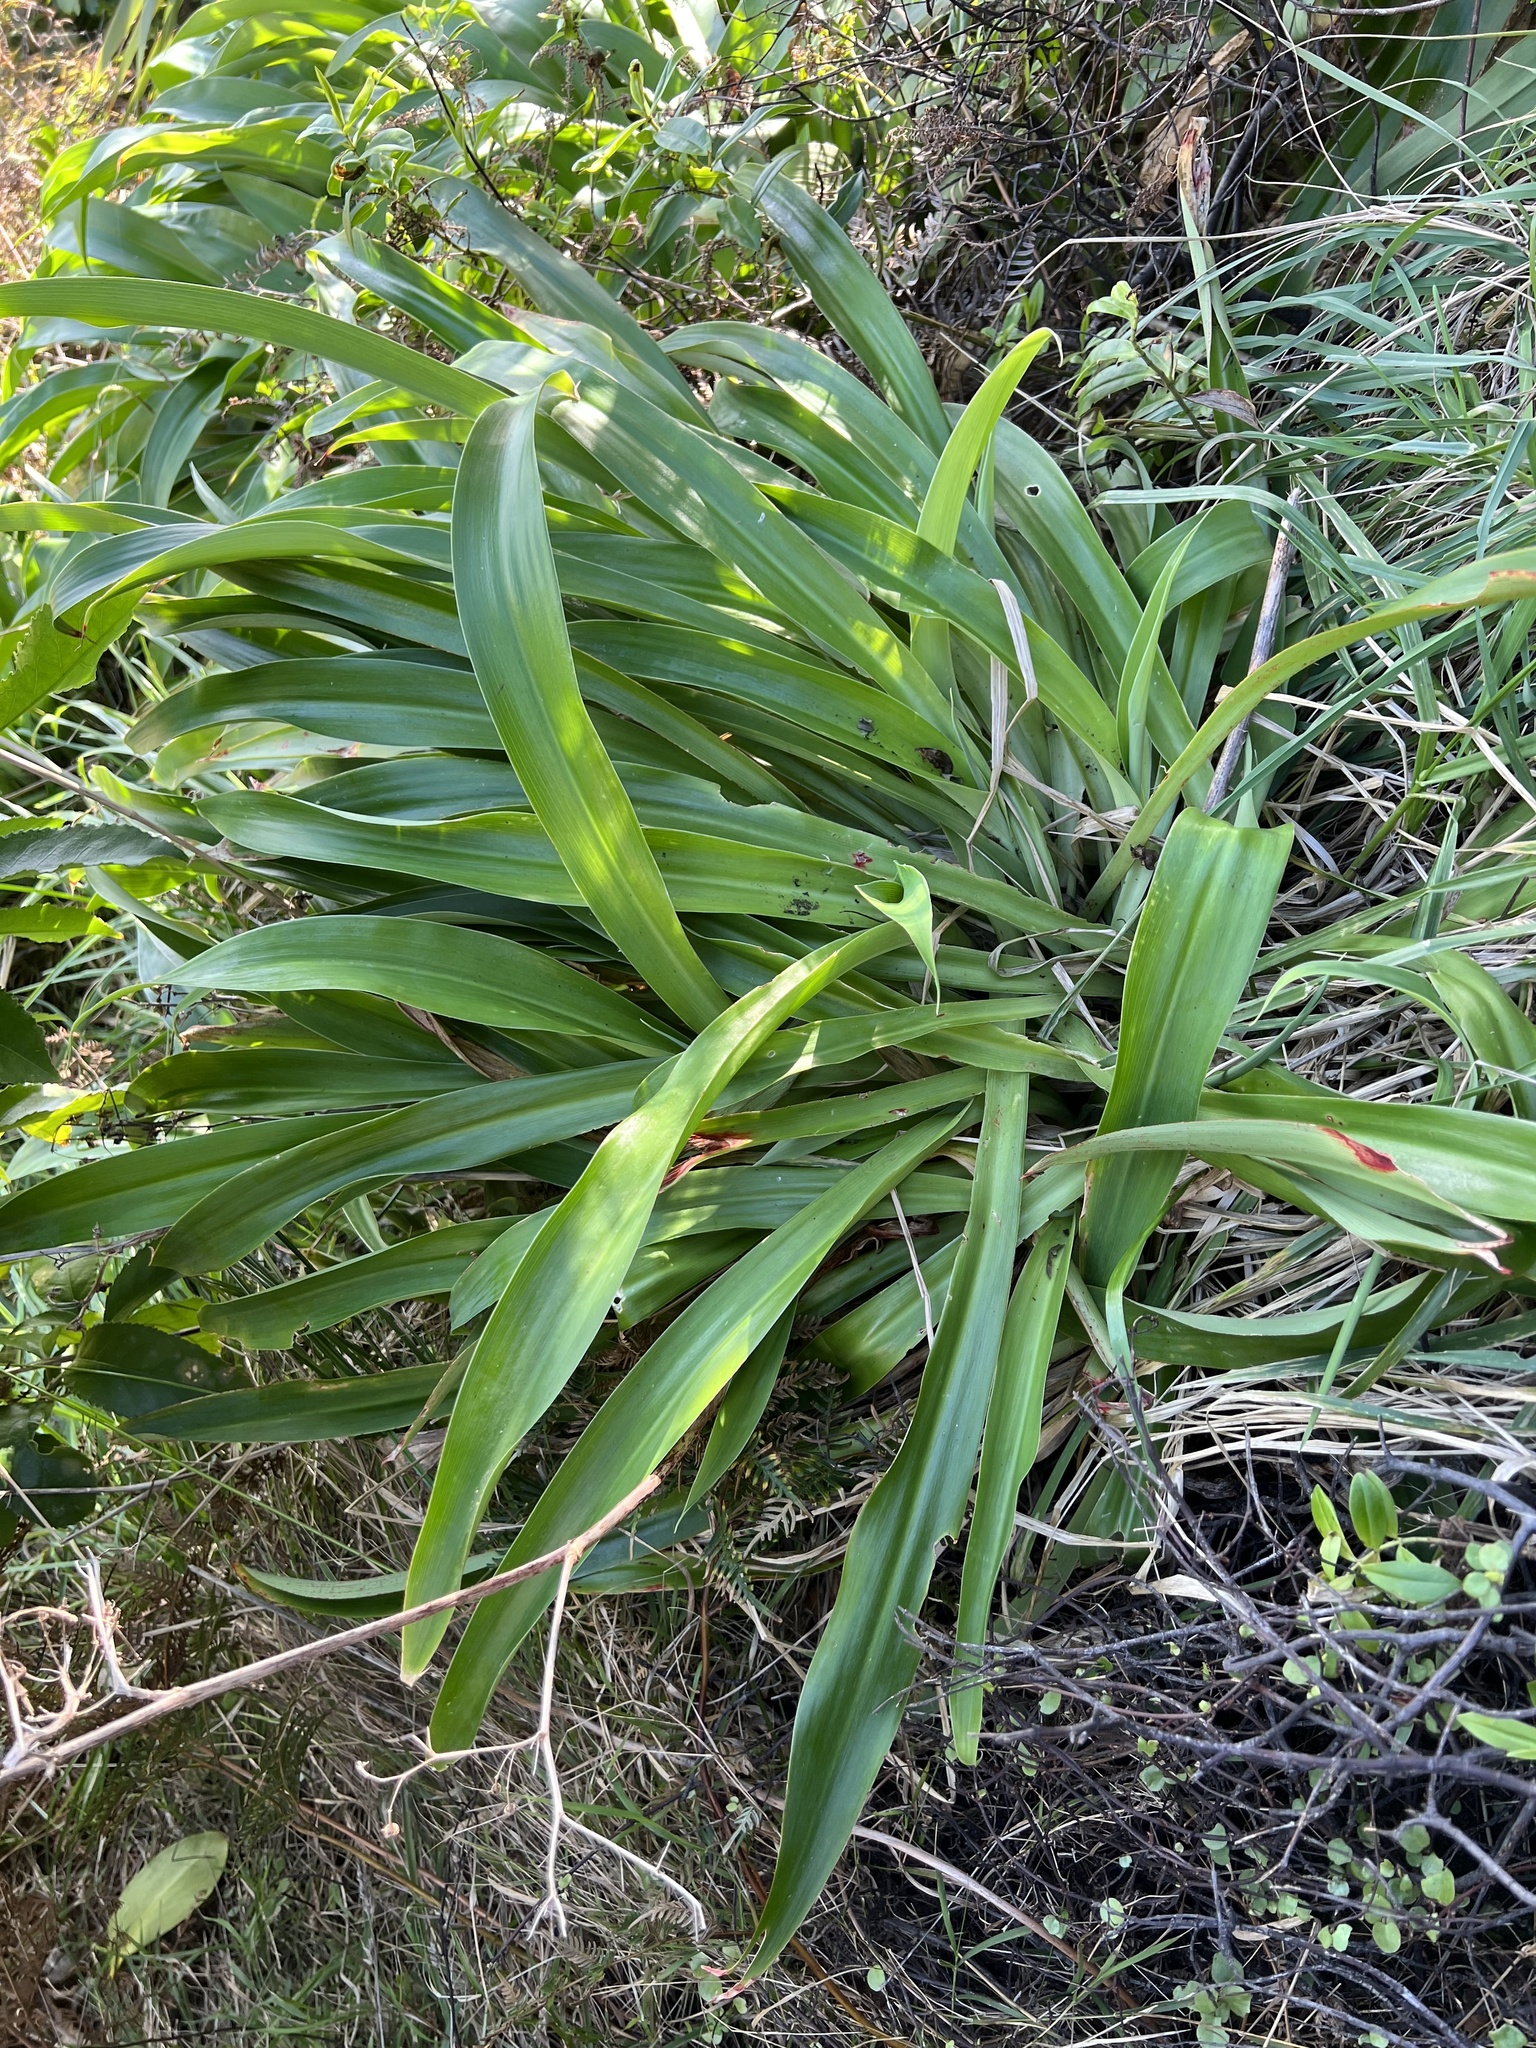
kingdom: Plantae
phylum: Tracheophyta
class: Liliopsida
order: Asparagales
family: Asparagaceae
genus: Arthropodium
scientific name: Arthropodium cirratum
